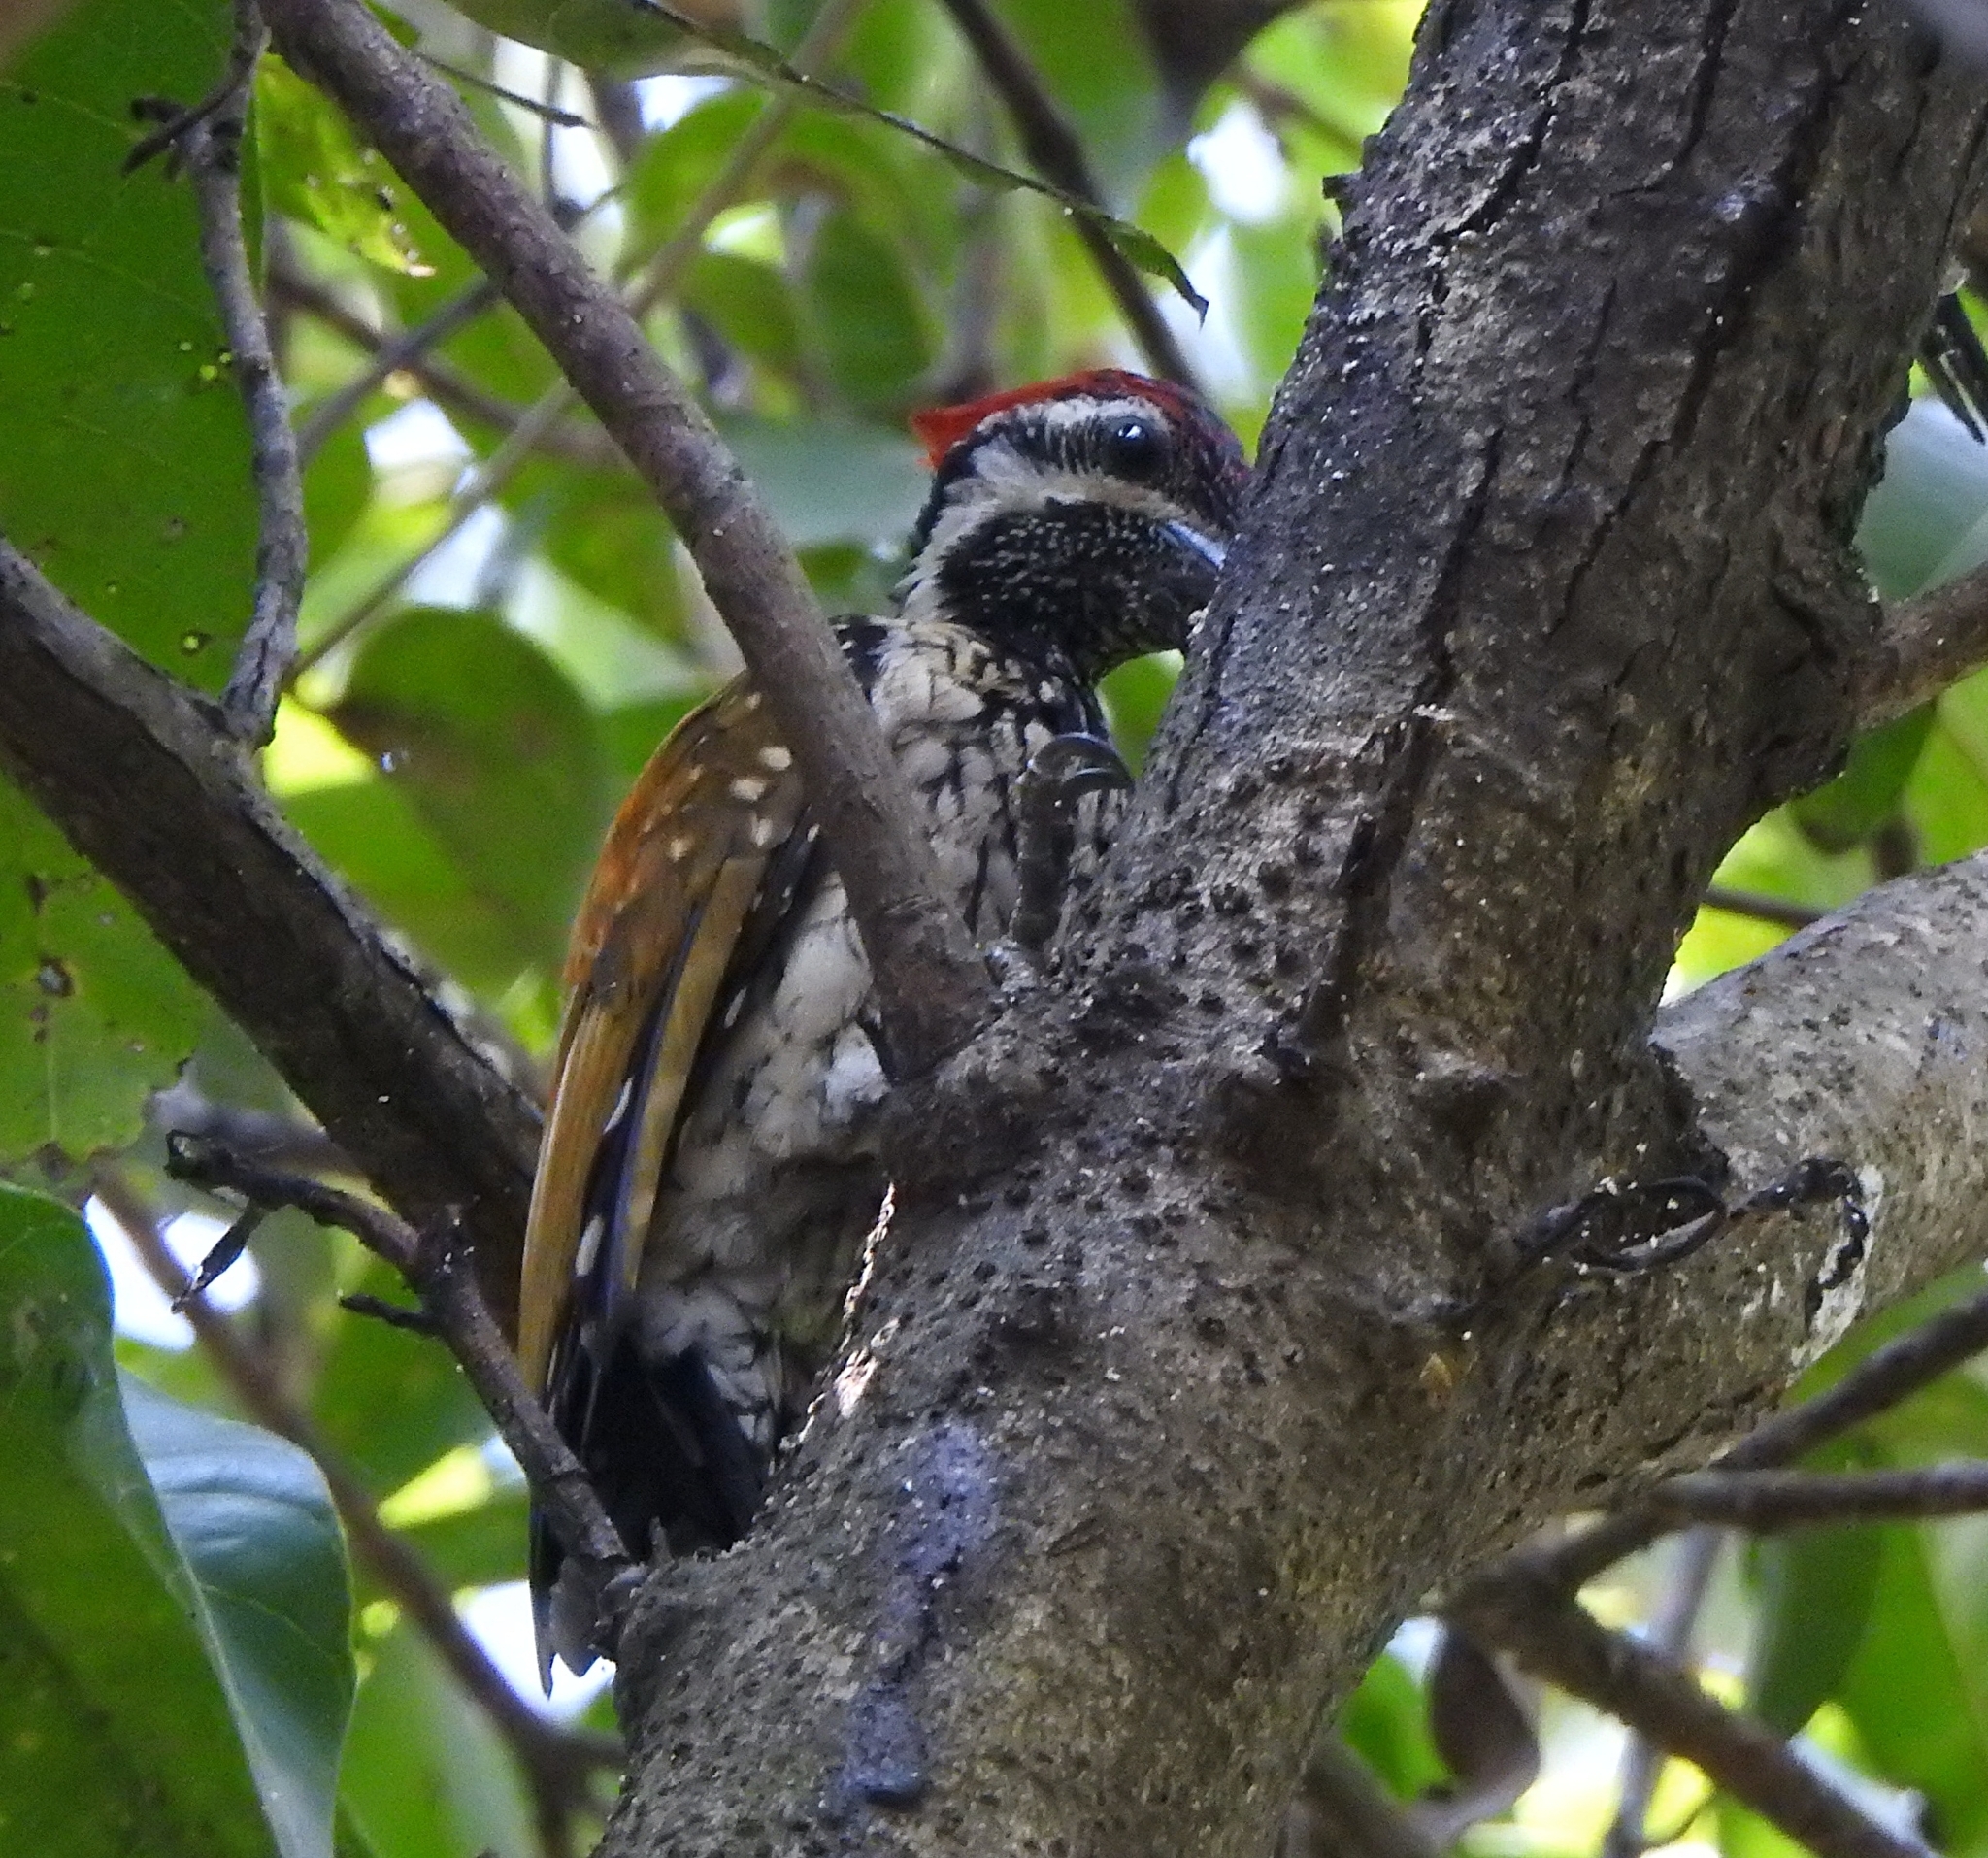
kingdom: Animalia
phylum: Chordata
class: Aves
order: Piciformes
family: Picidae
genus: Dinopium
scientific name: Dinopium benghalense
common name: Black-rumped flameback
